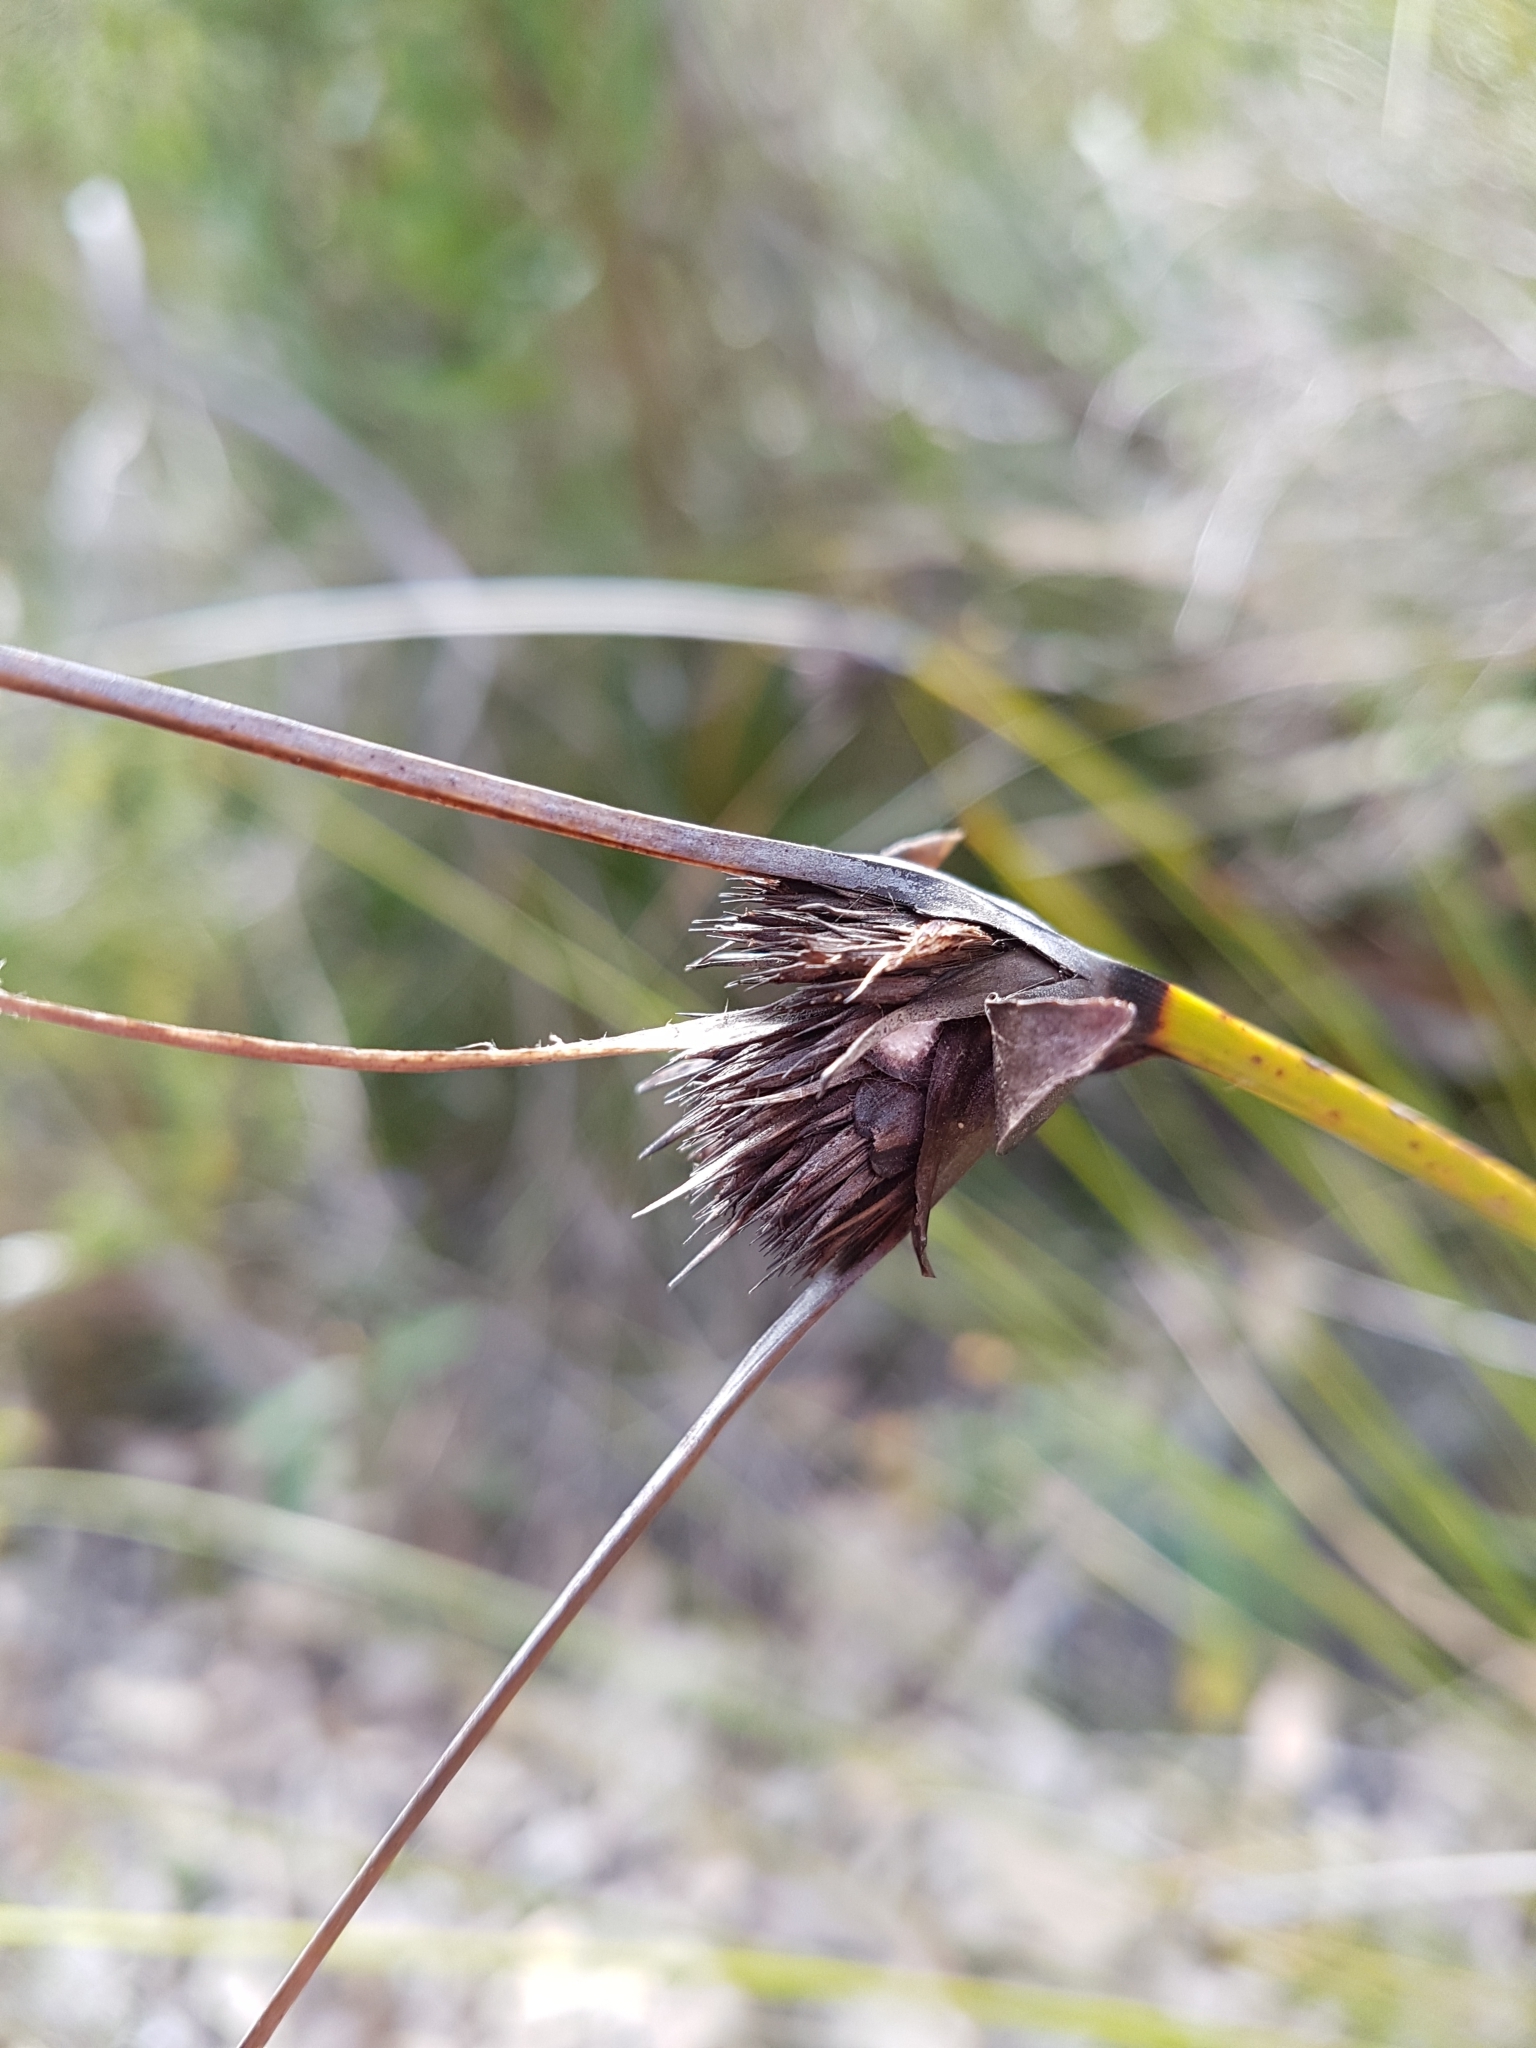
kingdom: Plantae
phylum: Tracheophyta
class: Liliopsida
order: Poales
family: Cyperaceae
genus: Mesomelaena
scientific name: Mesomelaena tetragona
